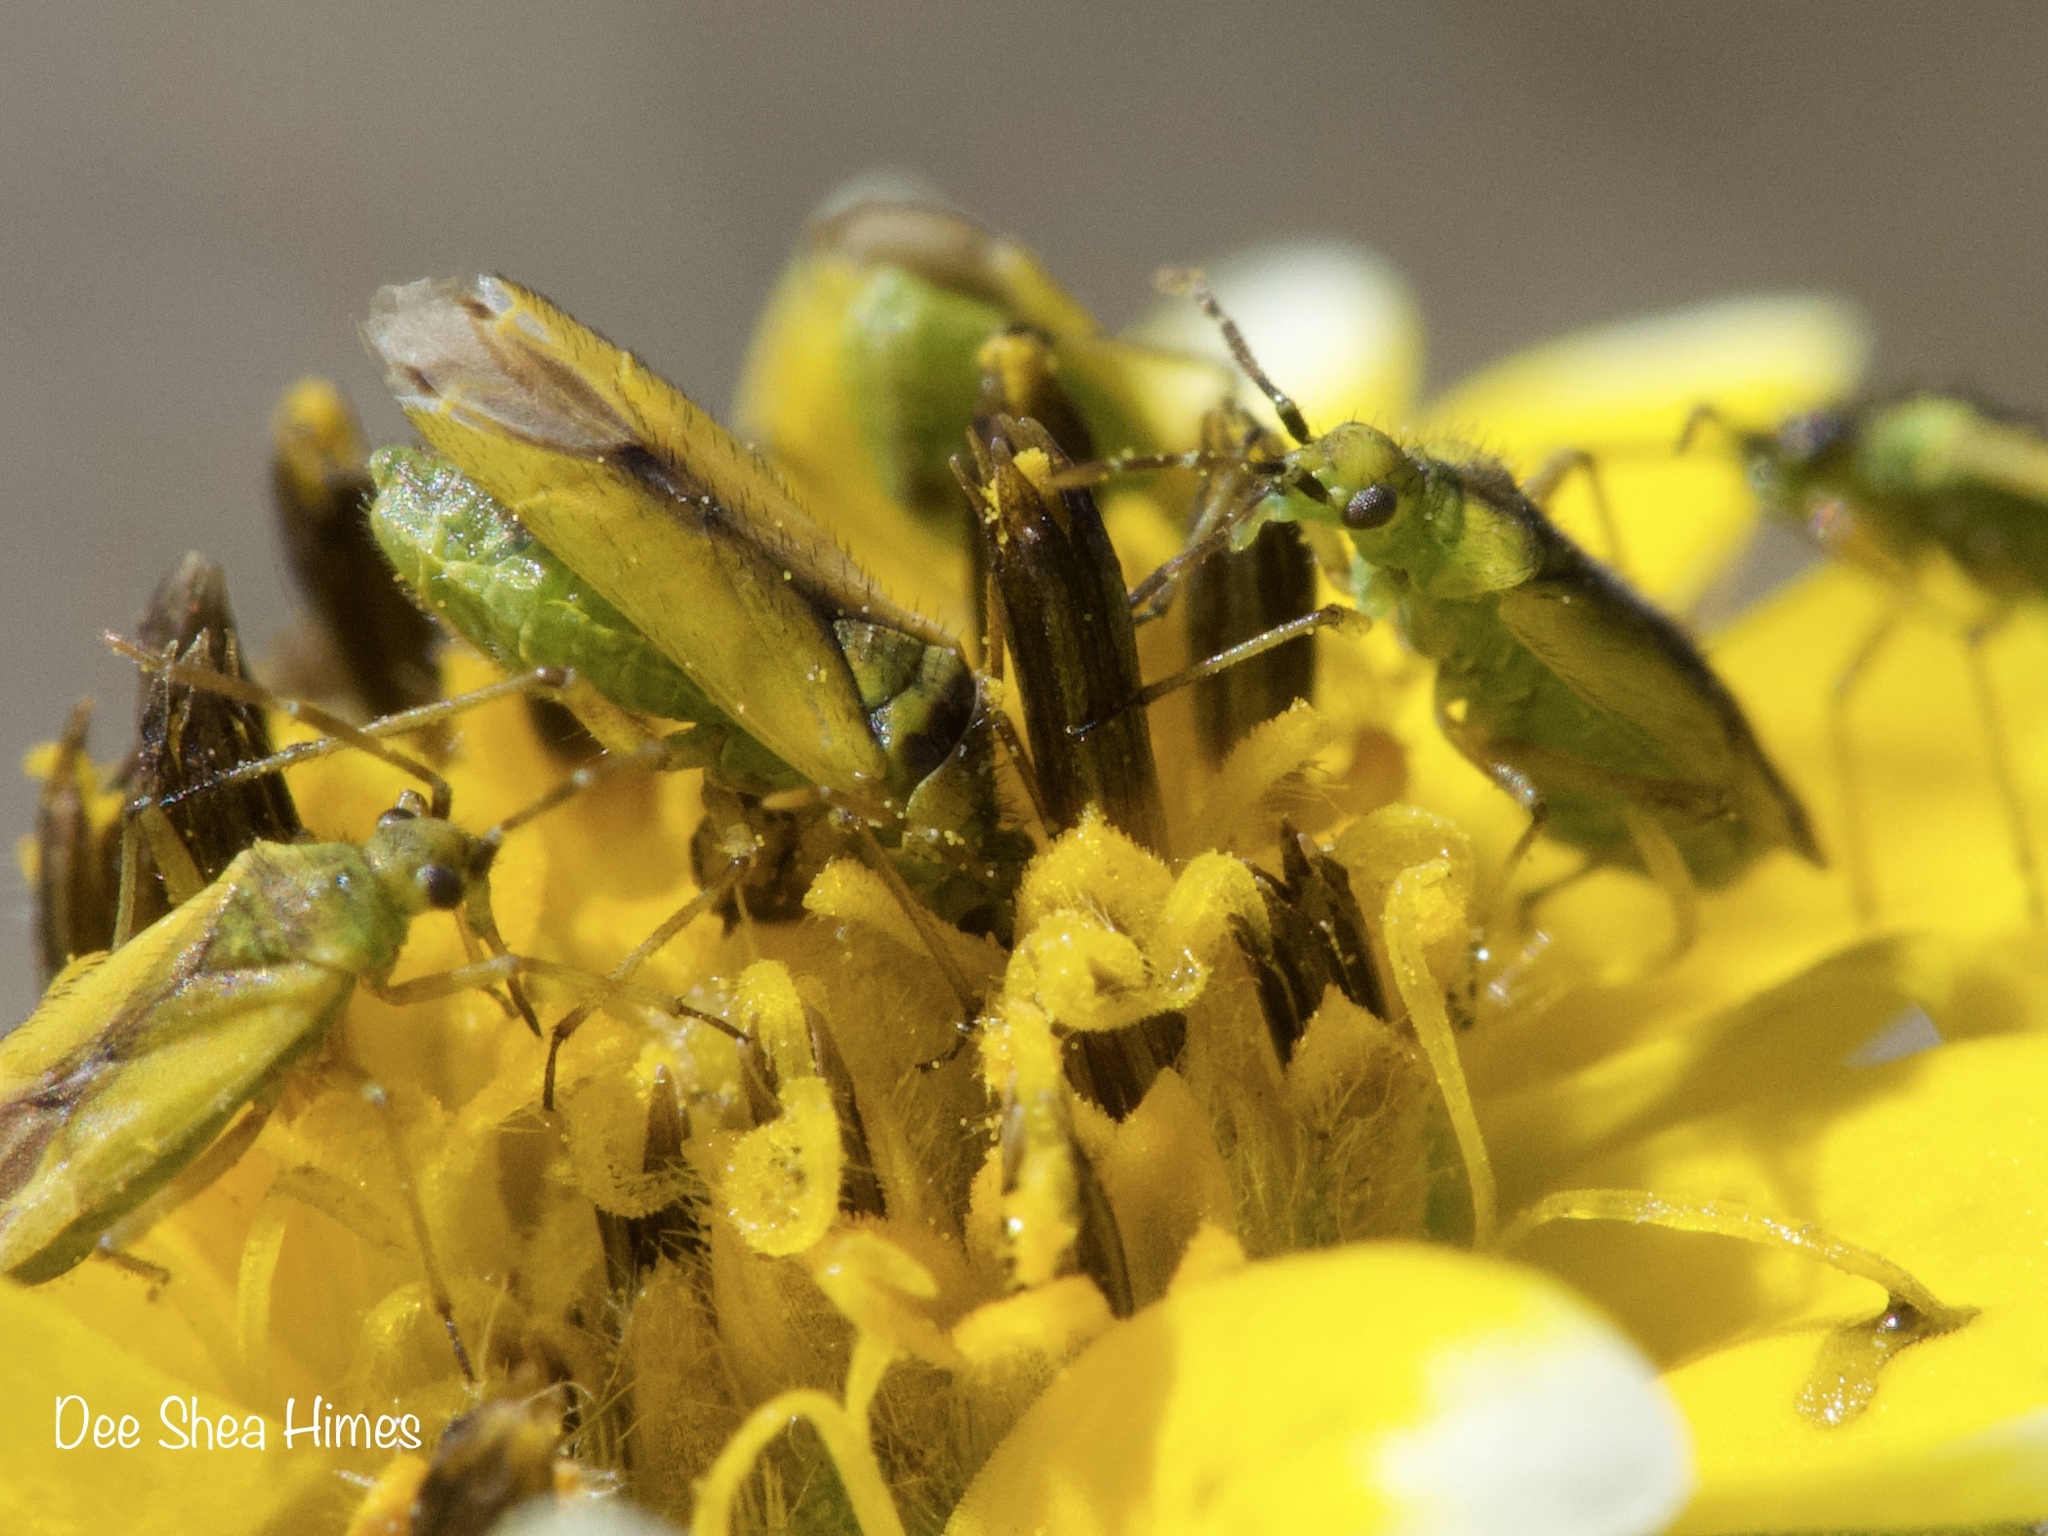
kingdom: Animalia
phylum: Arthropoda
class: Insecta
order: Hemiptera
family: Miridae
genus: Macrotylus
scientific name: Macrotylus dorsalis
